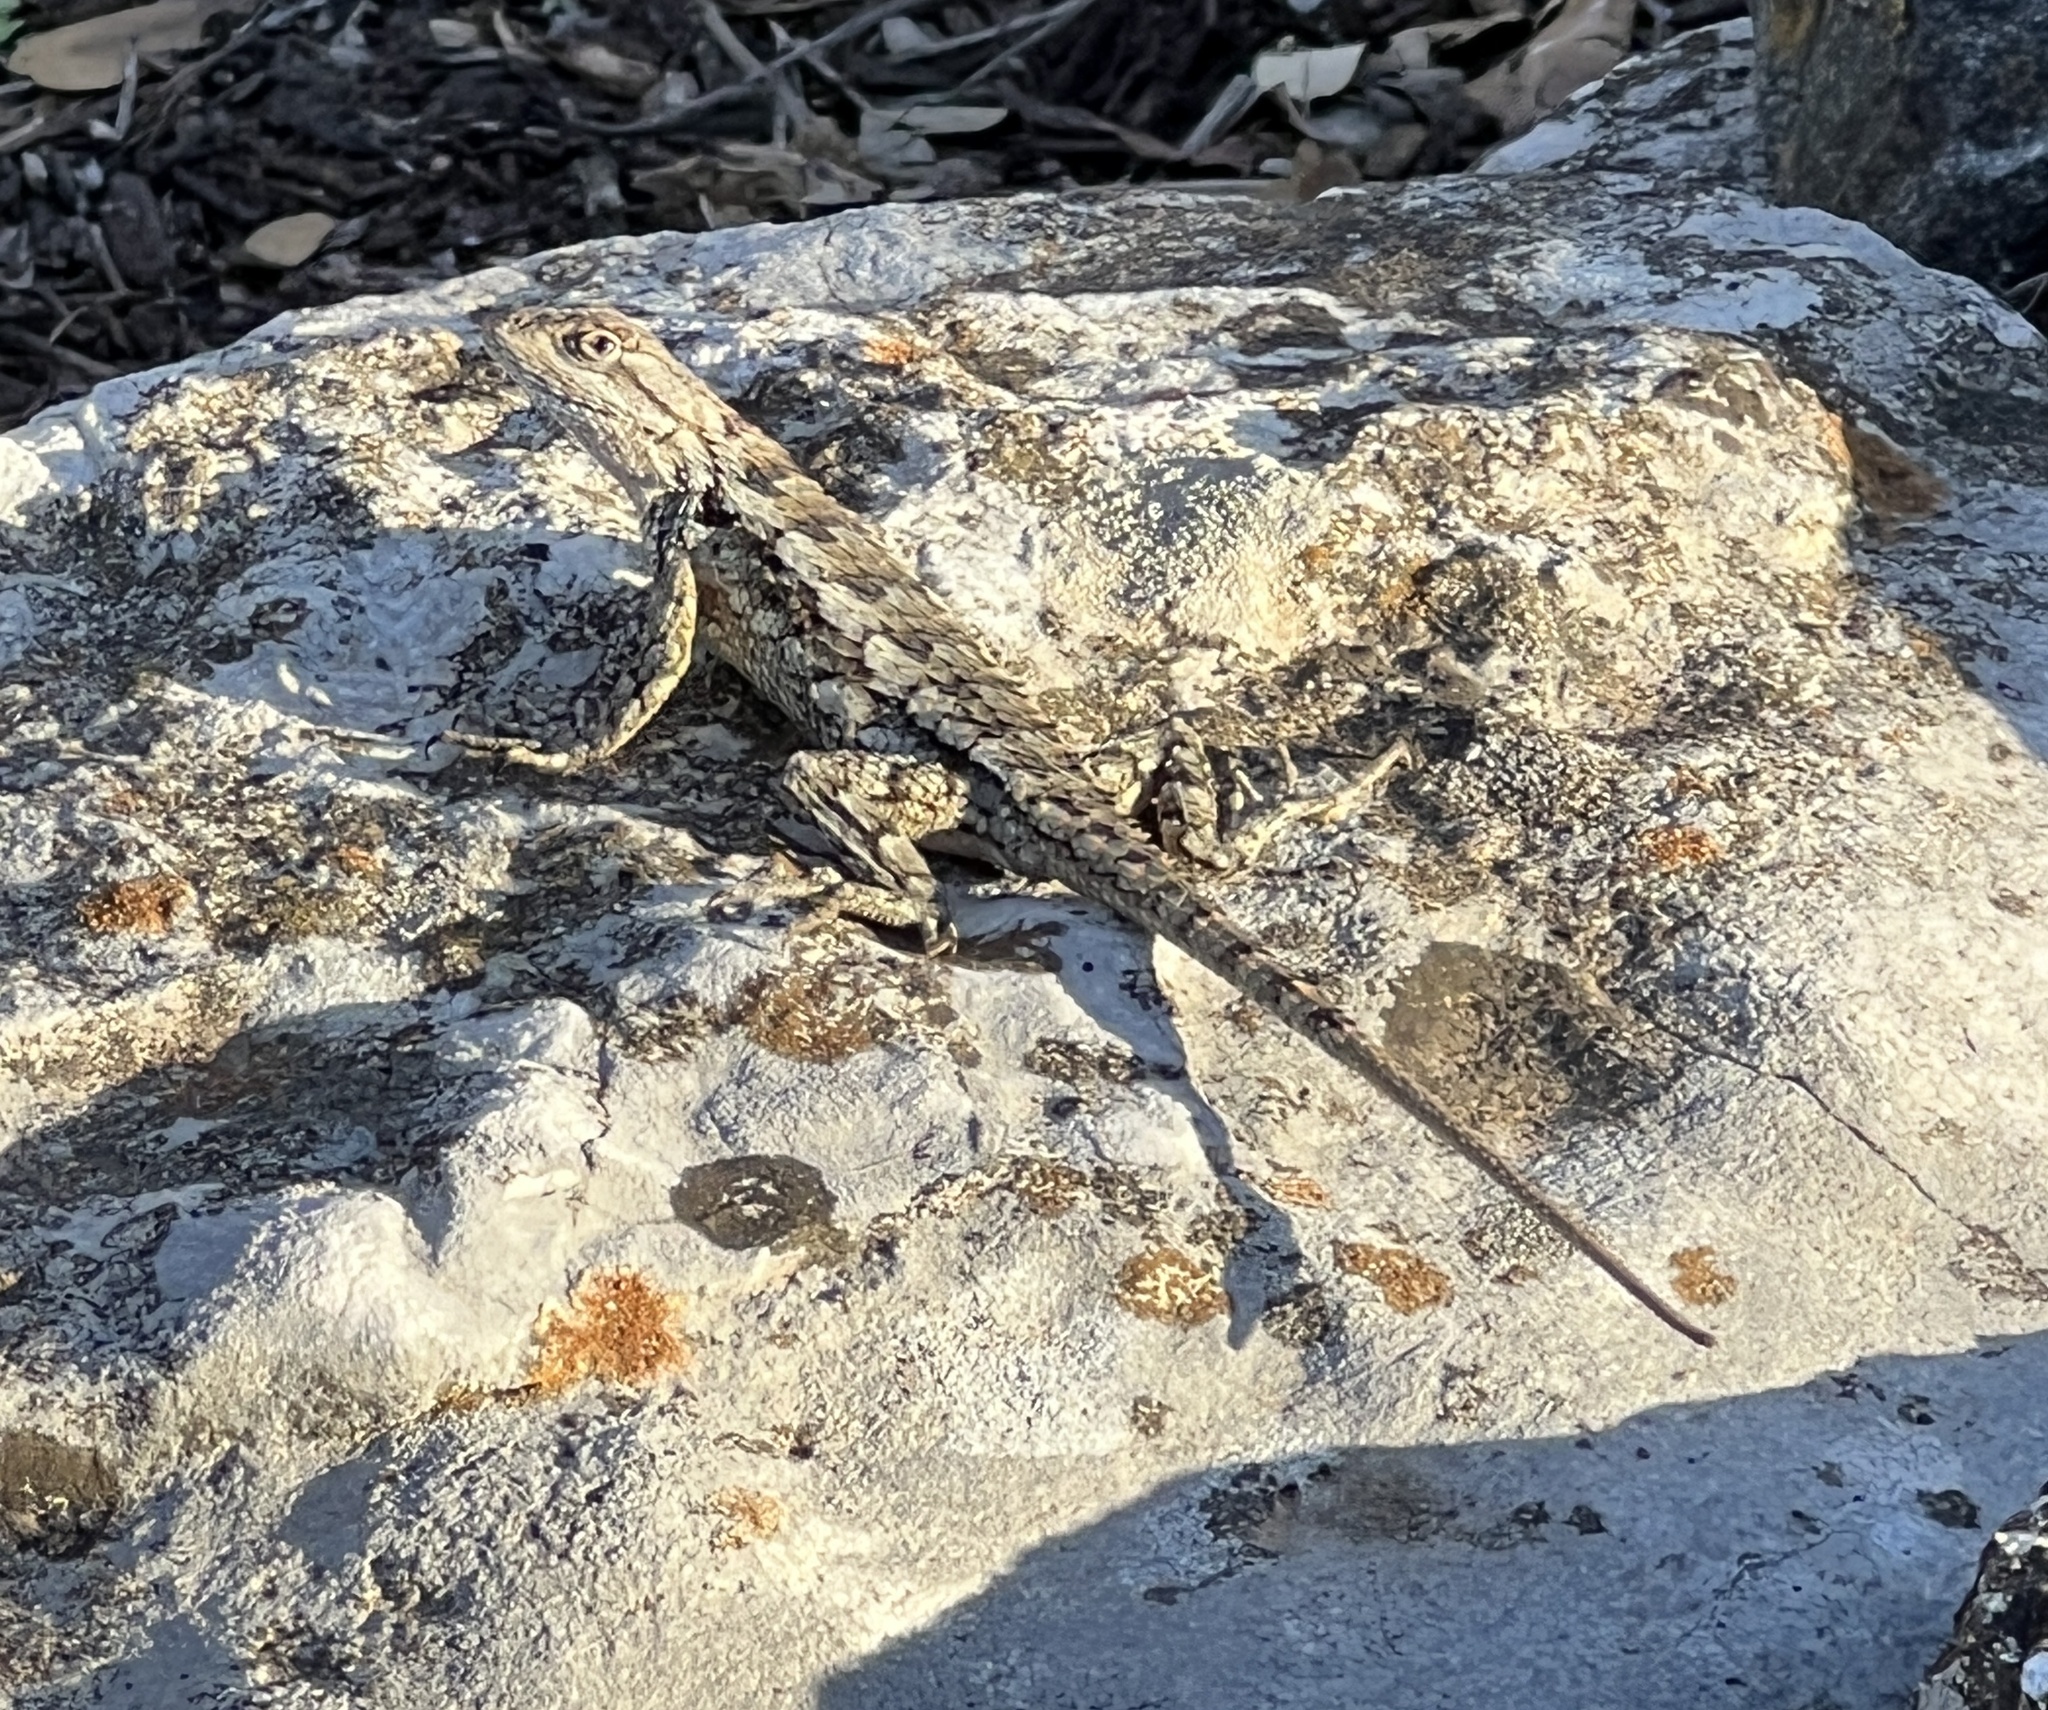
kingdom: Animalia
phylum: Chordata
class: Squamata
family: Phrynosomatidae
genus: Sceloporus
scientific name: Sceloporus olivaceus
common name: Texas spiny lizard
